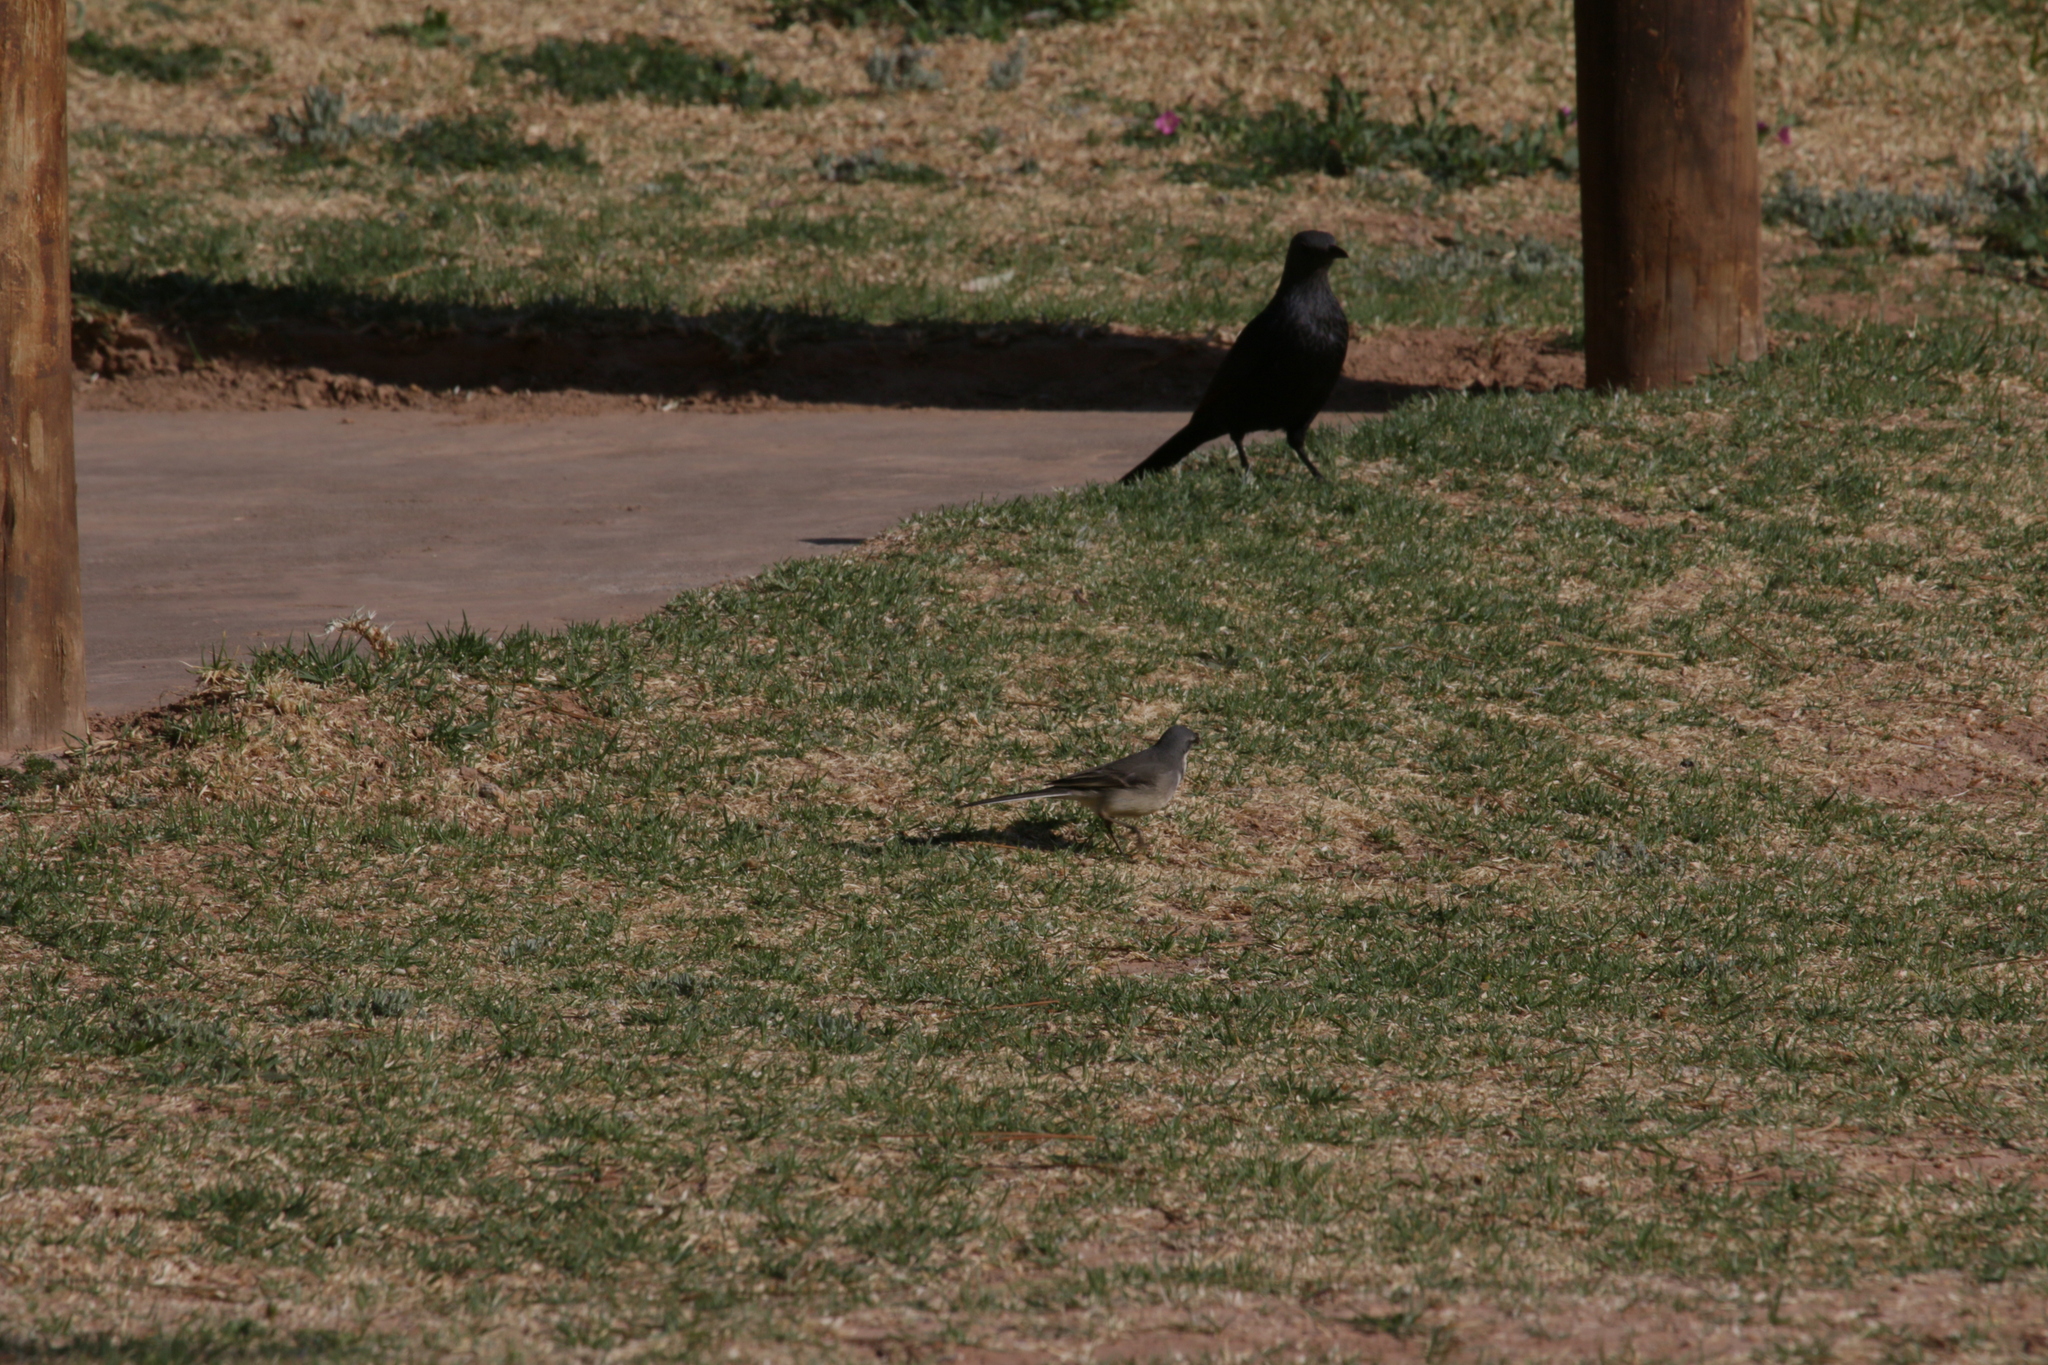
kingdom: Animalia
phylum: Chordata
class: Aves
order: Passeriformes
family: Motacillidae
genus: Motacilla
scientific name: Motacilla capensis
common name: Cape wagtail
